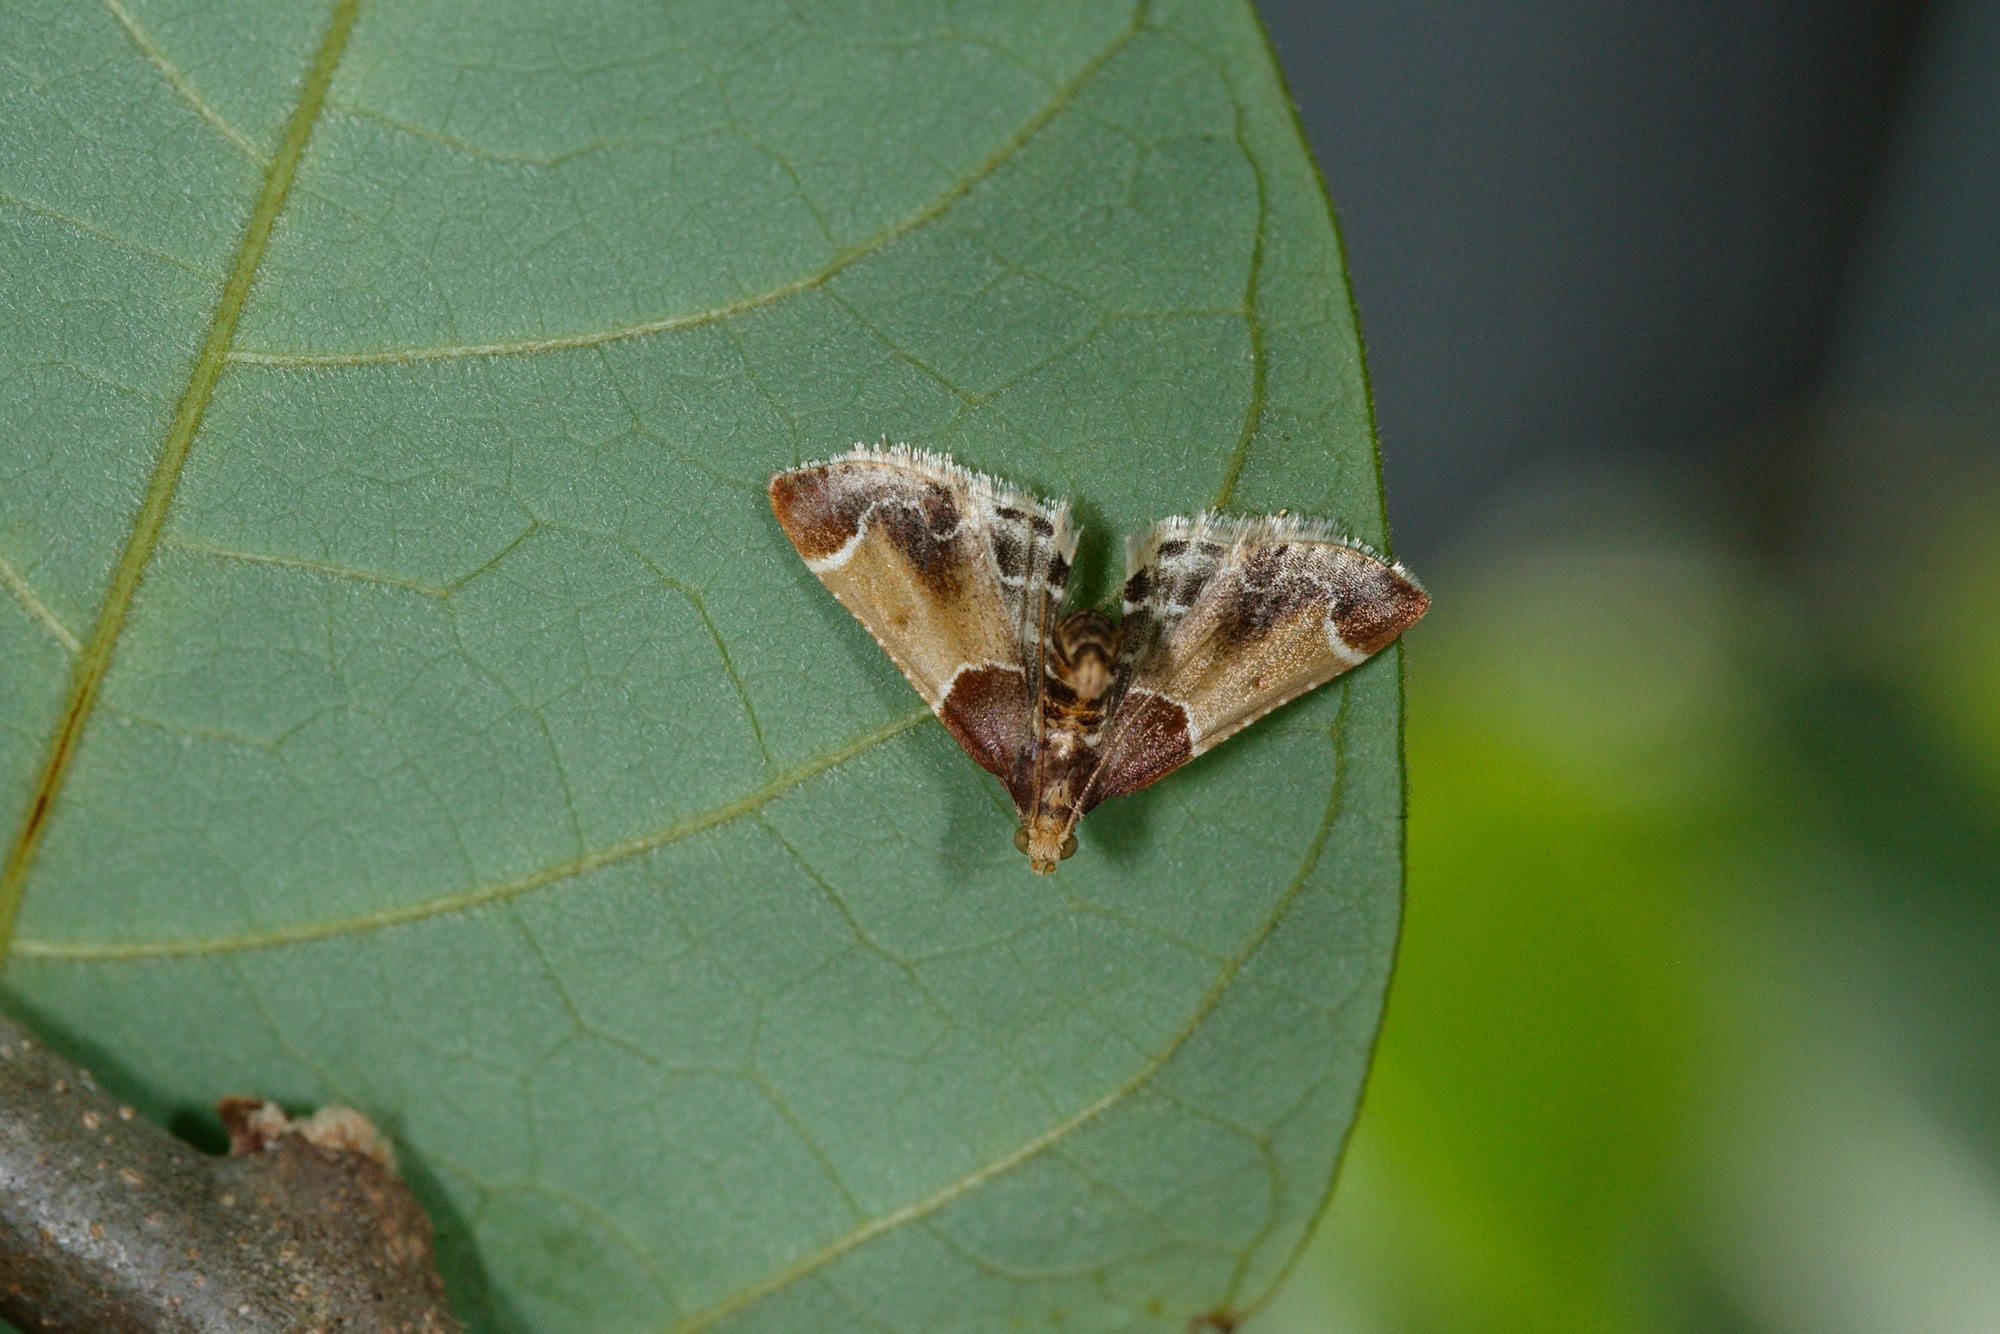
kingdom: Animalia
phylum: Arthropoda
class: Insecta
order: Lepidoptera
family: Pyralidae
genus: Pyralis
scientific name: Pyralis farinalis
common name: Meal moth
